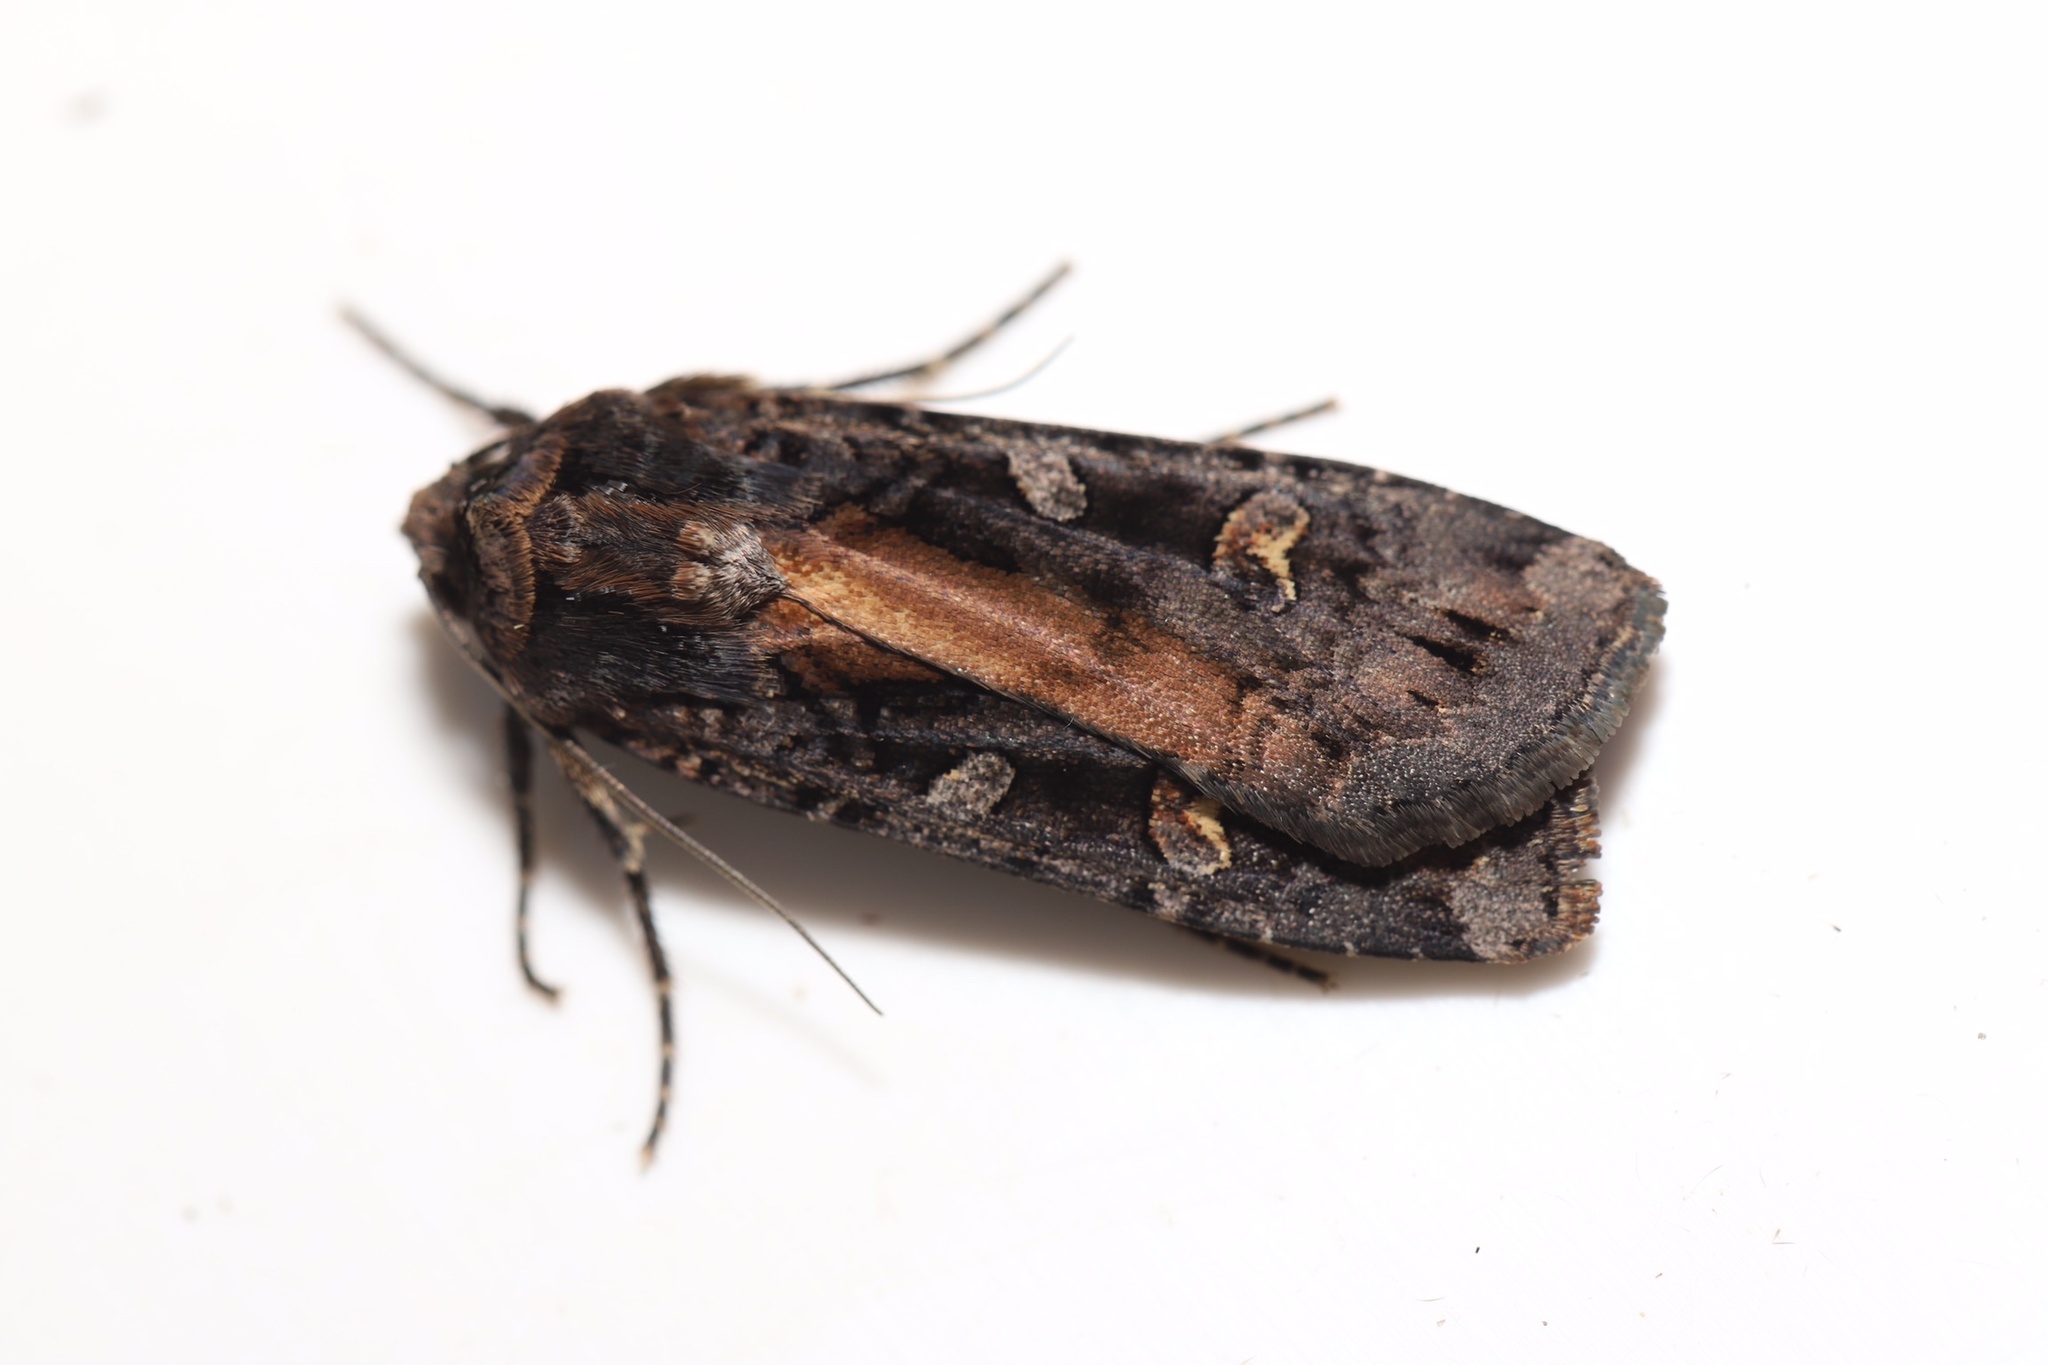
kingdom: Animalia
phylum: Arthropoda
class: Insecta
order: Lepidoptera
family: Noctuidae
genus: Actebia
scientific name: Actebia fennica
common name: Eversmann's rustic
